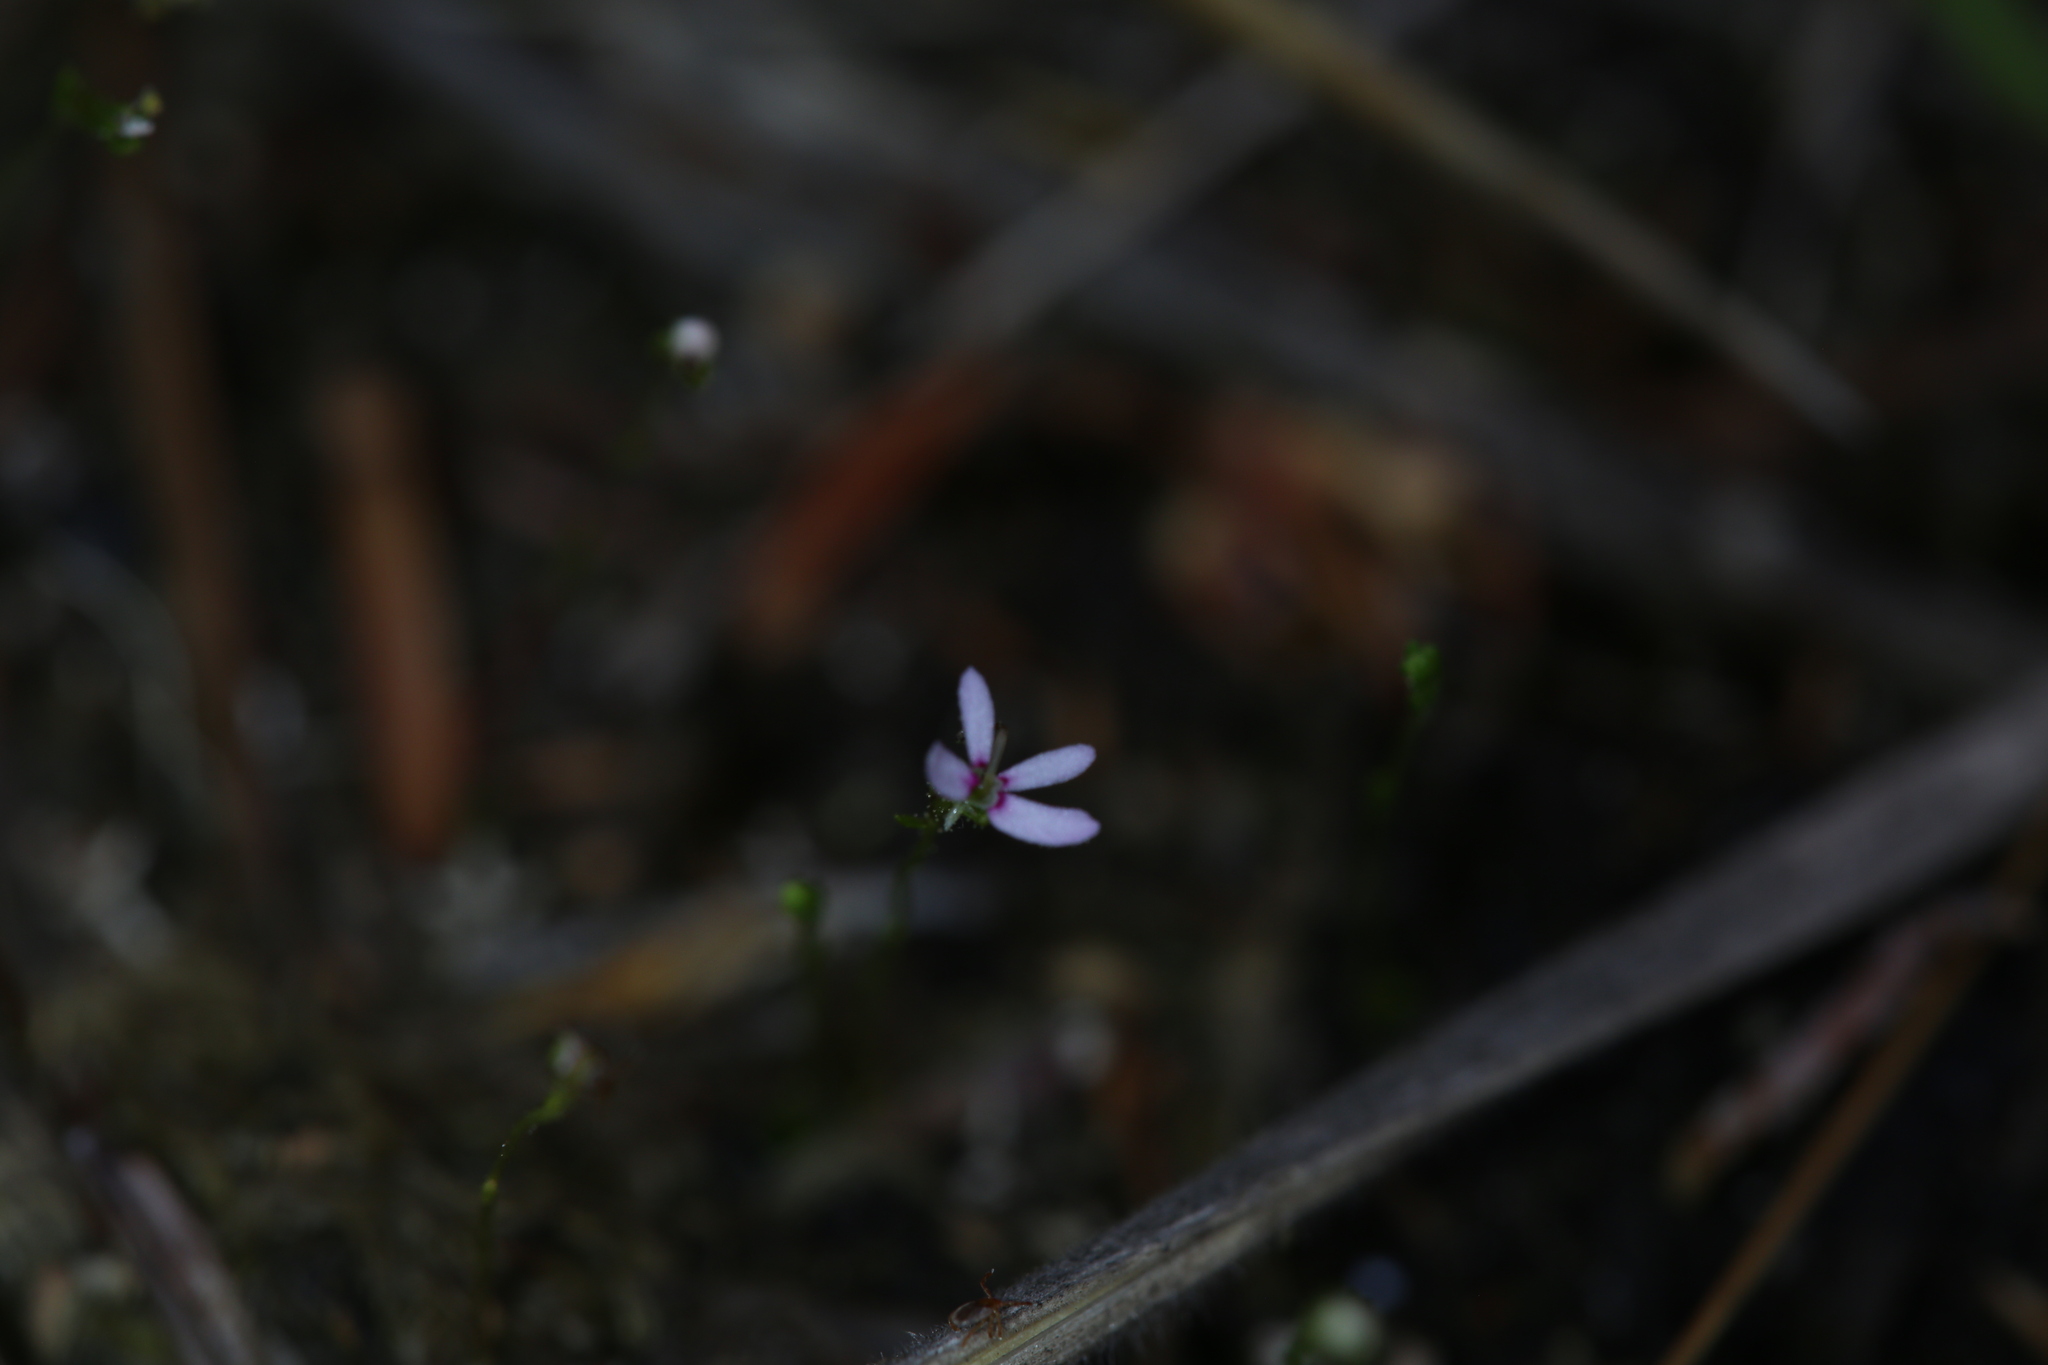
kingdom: Plantae
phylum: Tracheophyta
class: Magnoliopsida
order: Asterales
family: Stylidiaceae
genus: Stylidium
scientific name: Stylidium pygmaeum
